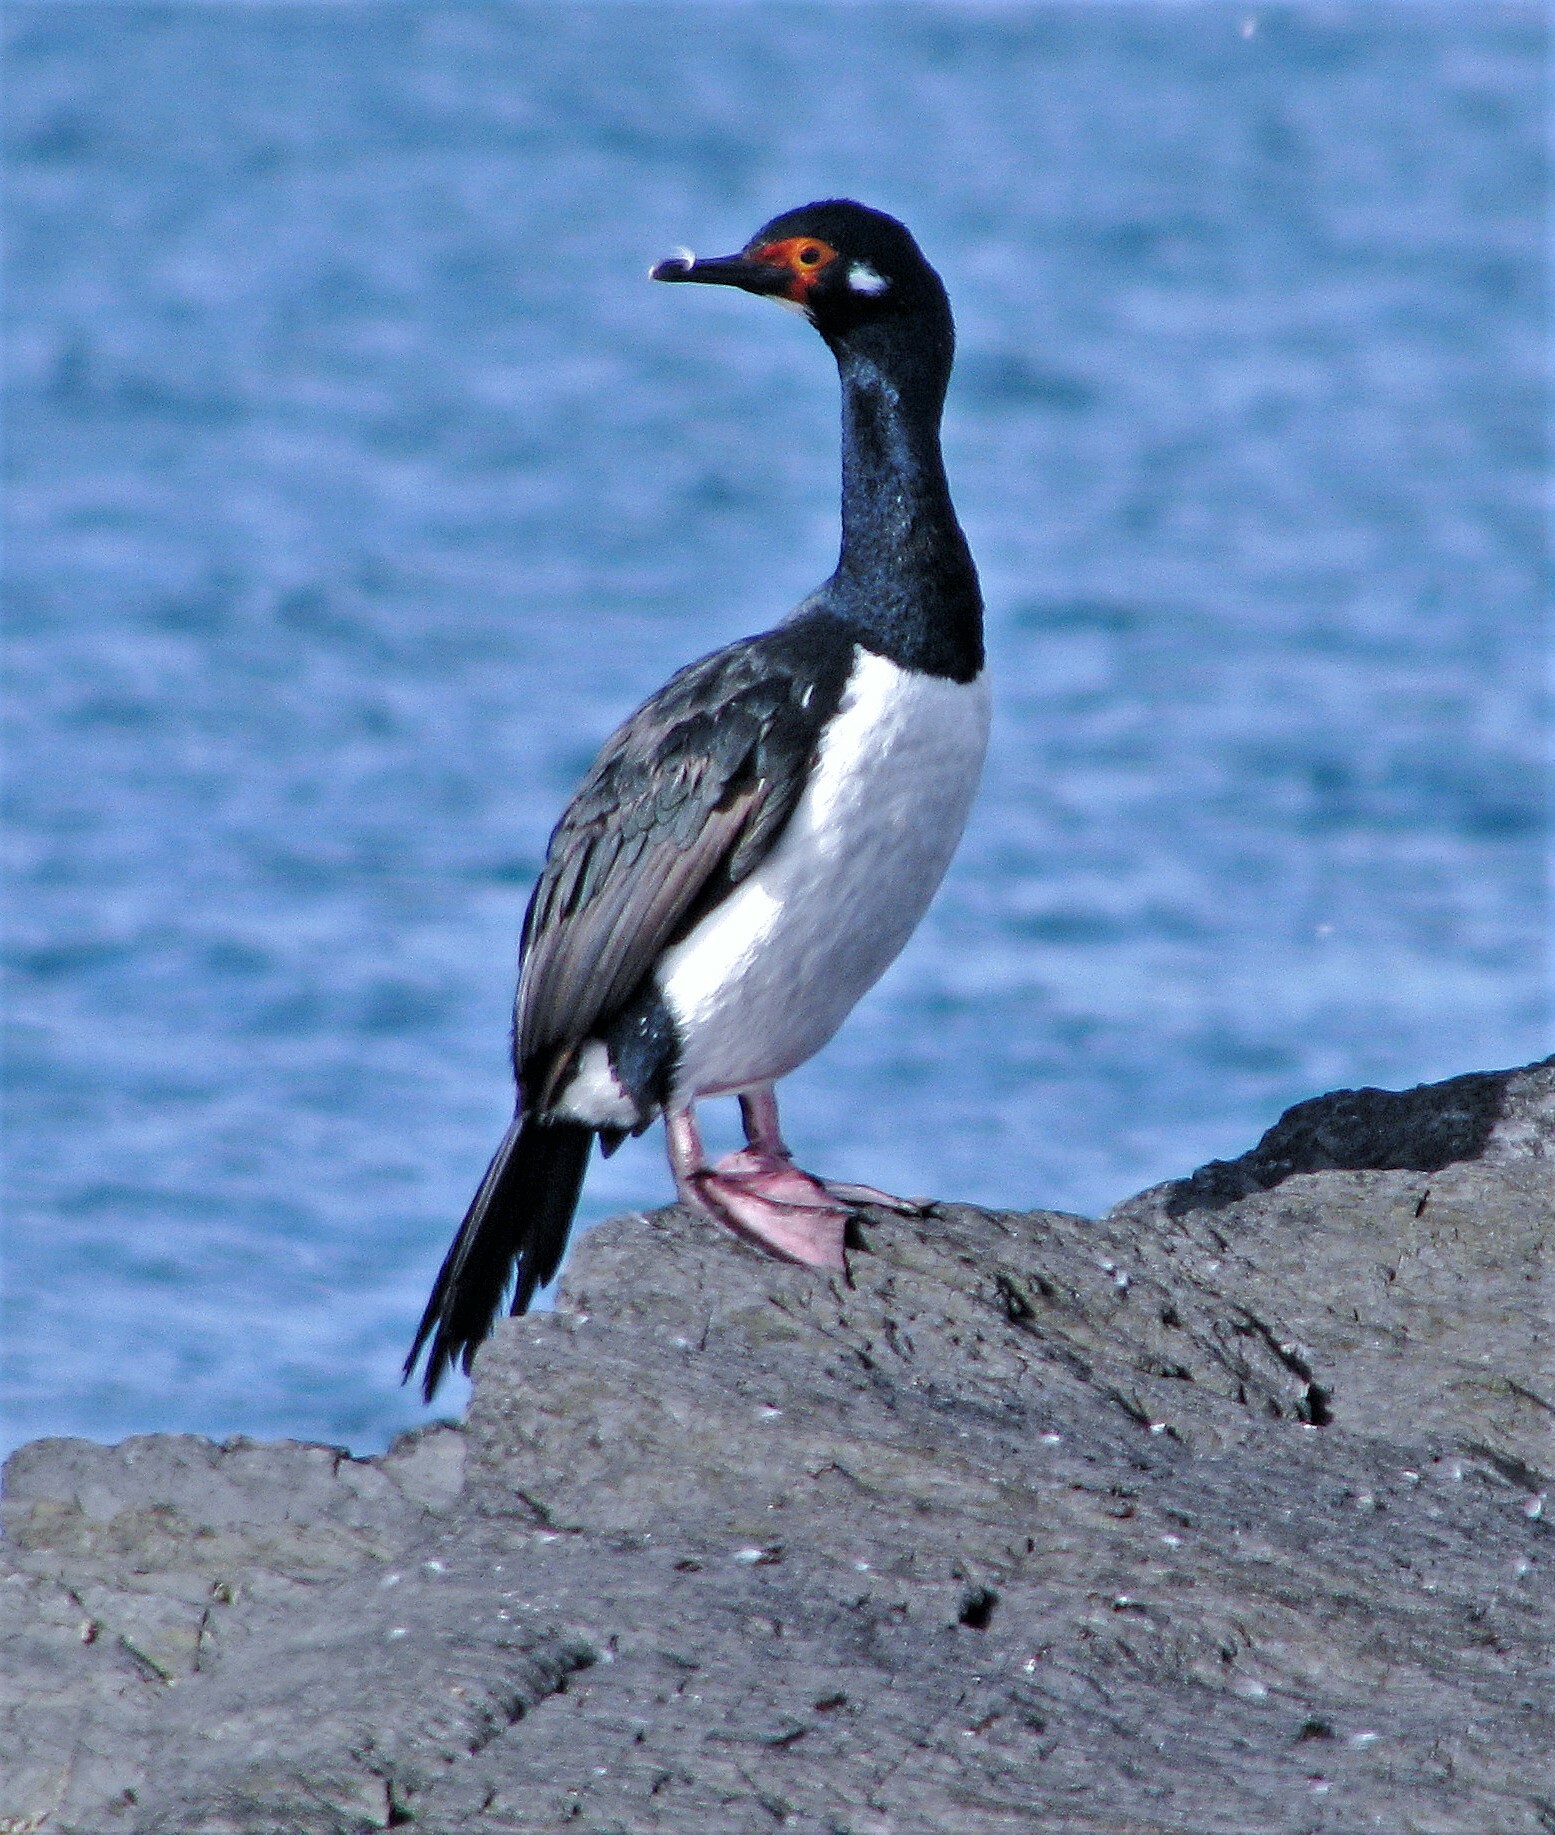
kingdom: Animalia
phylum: Chordata
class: Aves
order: Suliformes
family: Phalacrocoracidae
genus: Phalacrocorax
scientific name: Phalacrocorax magellanicus
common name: Rock shag
